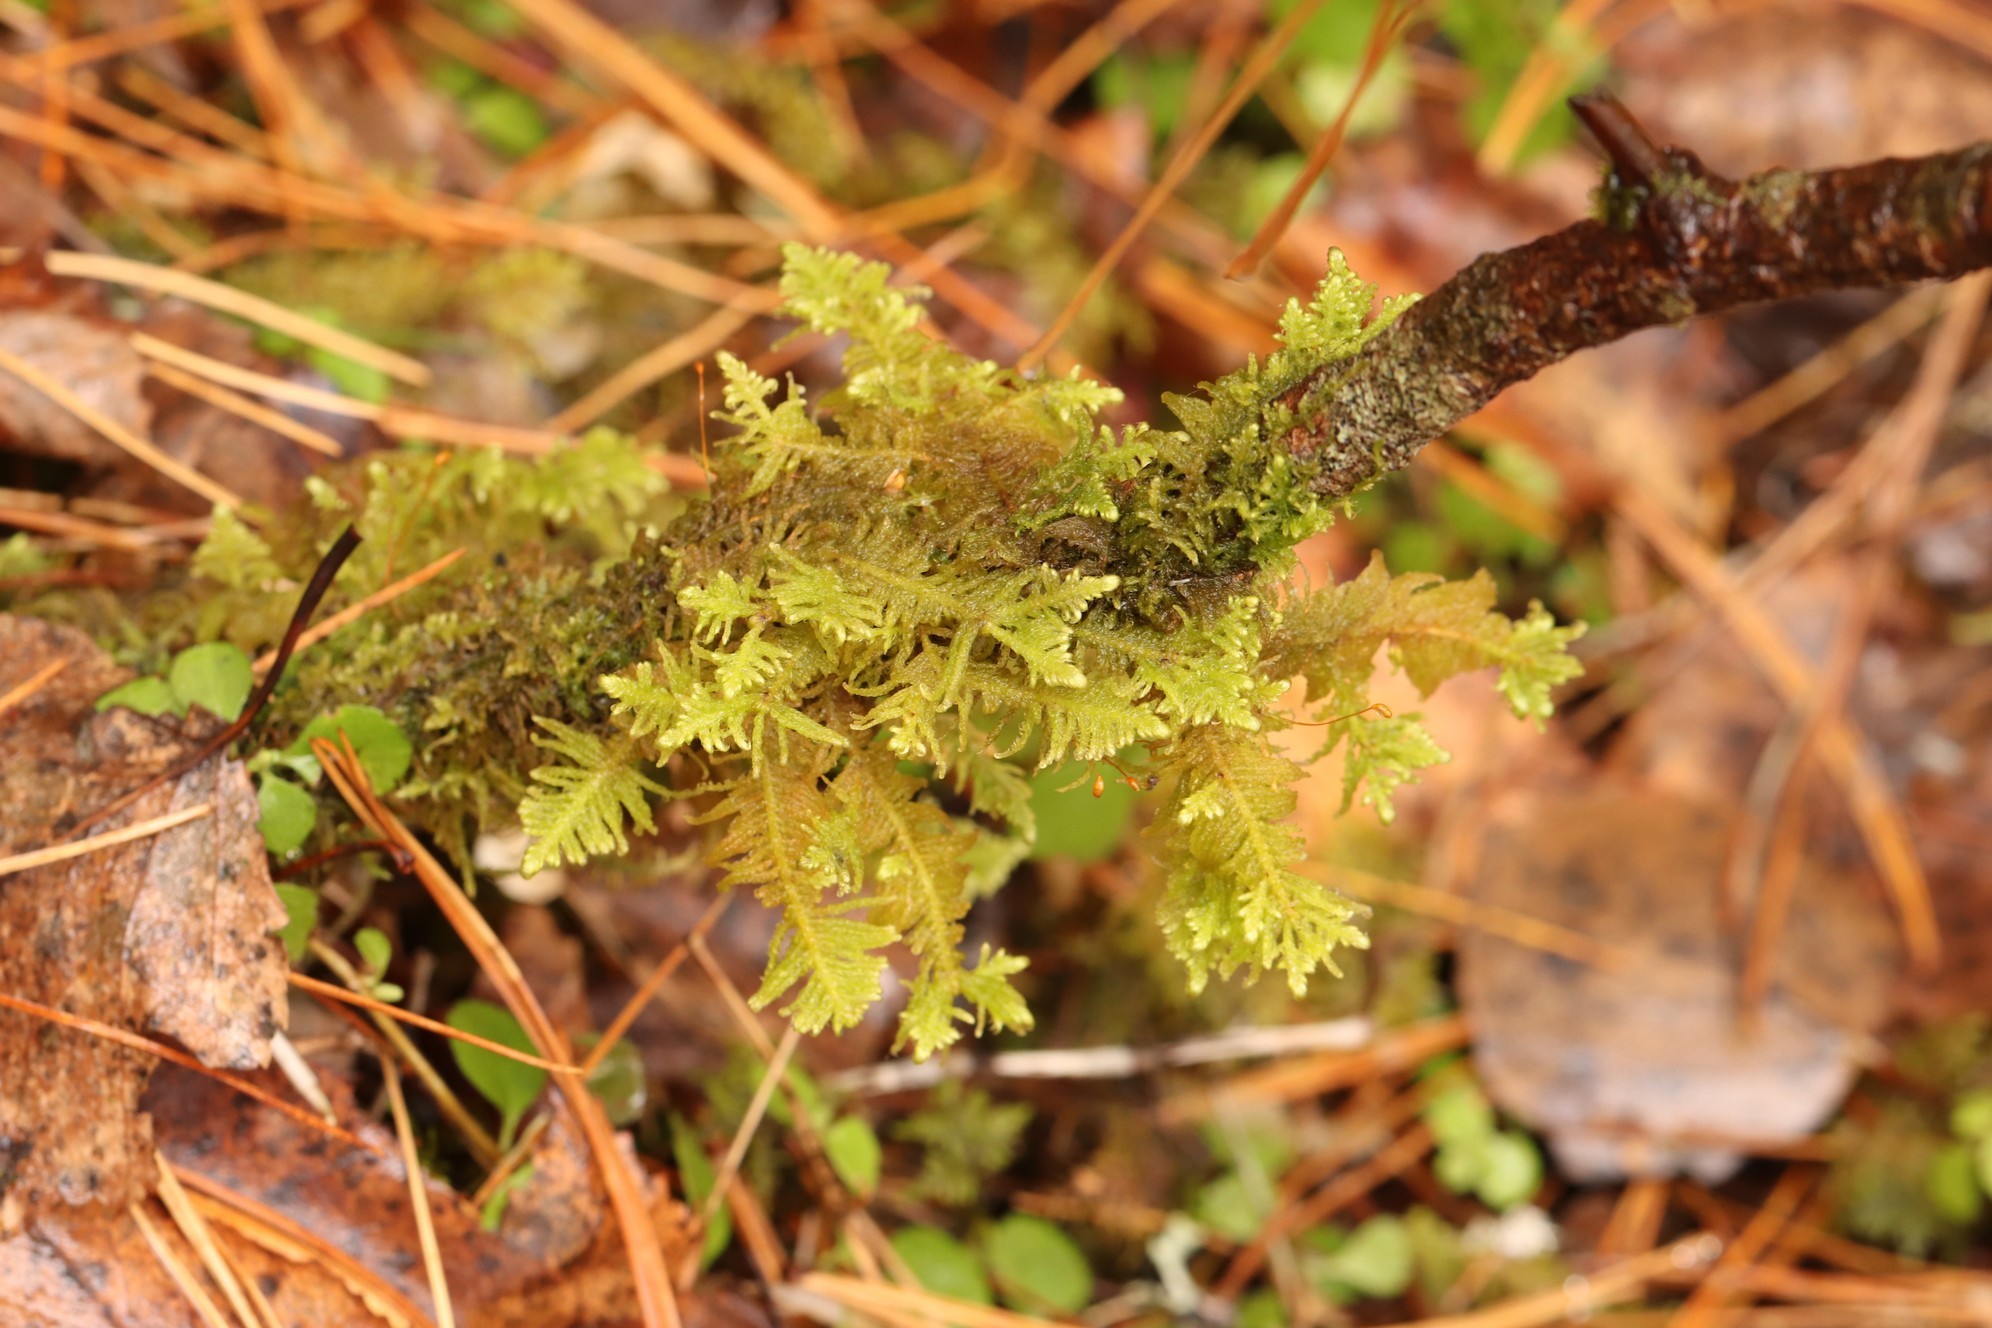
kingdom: Plantae
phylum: Bryophyta
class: Bryopsida
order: Hypnales
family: Pylaisiaceae
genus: Ptilium
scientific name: Ptilium crista-castrensis
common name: Knight's plume moss
